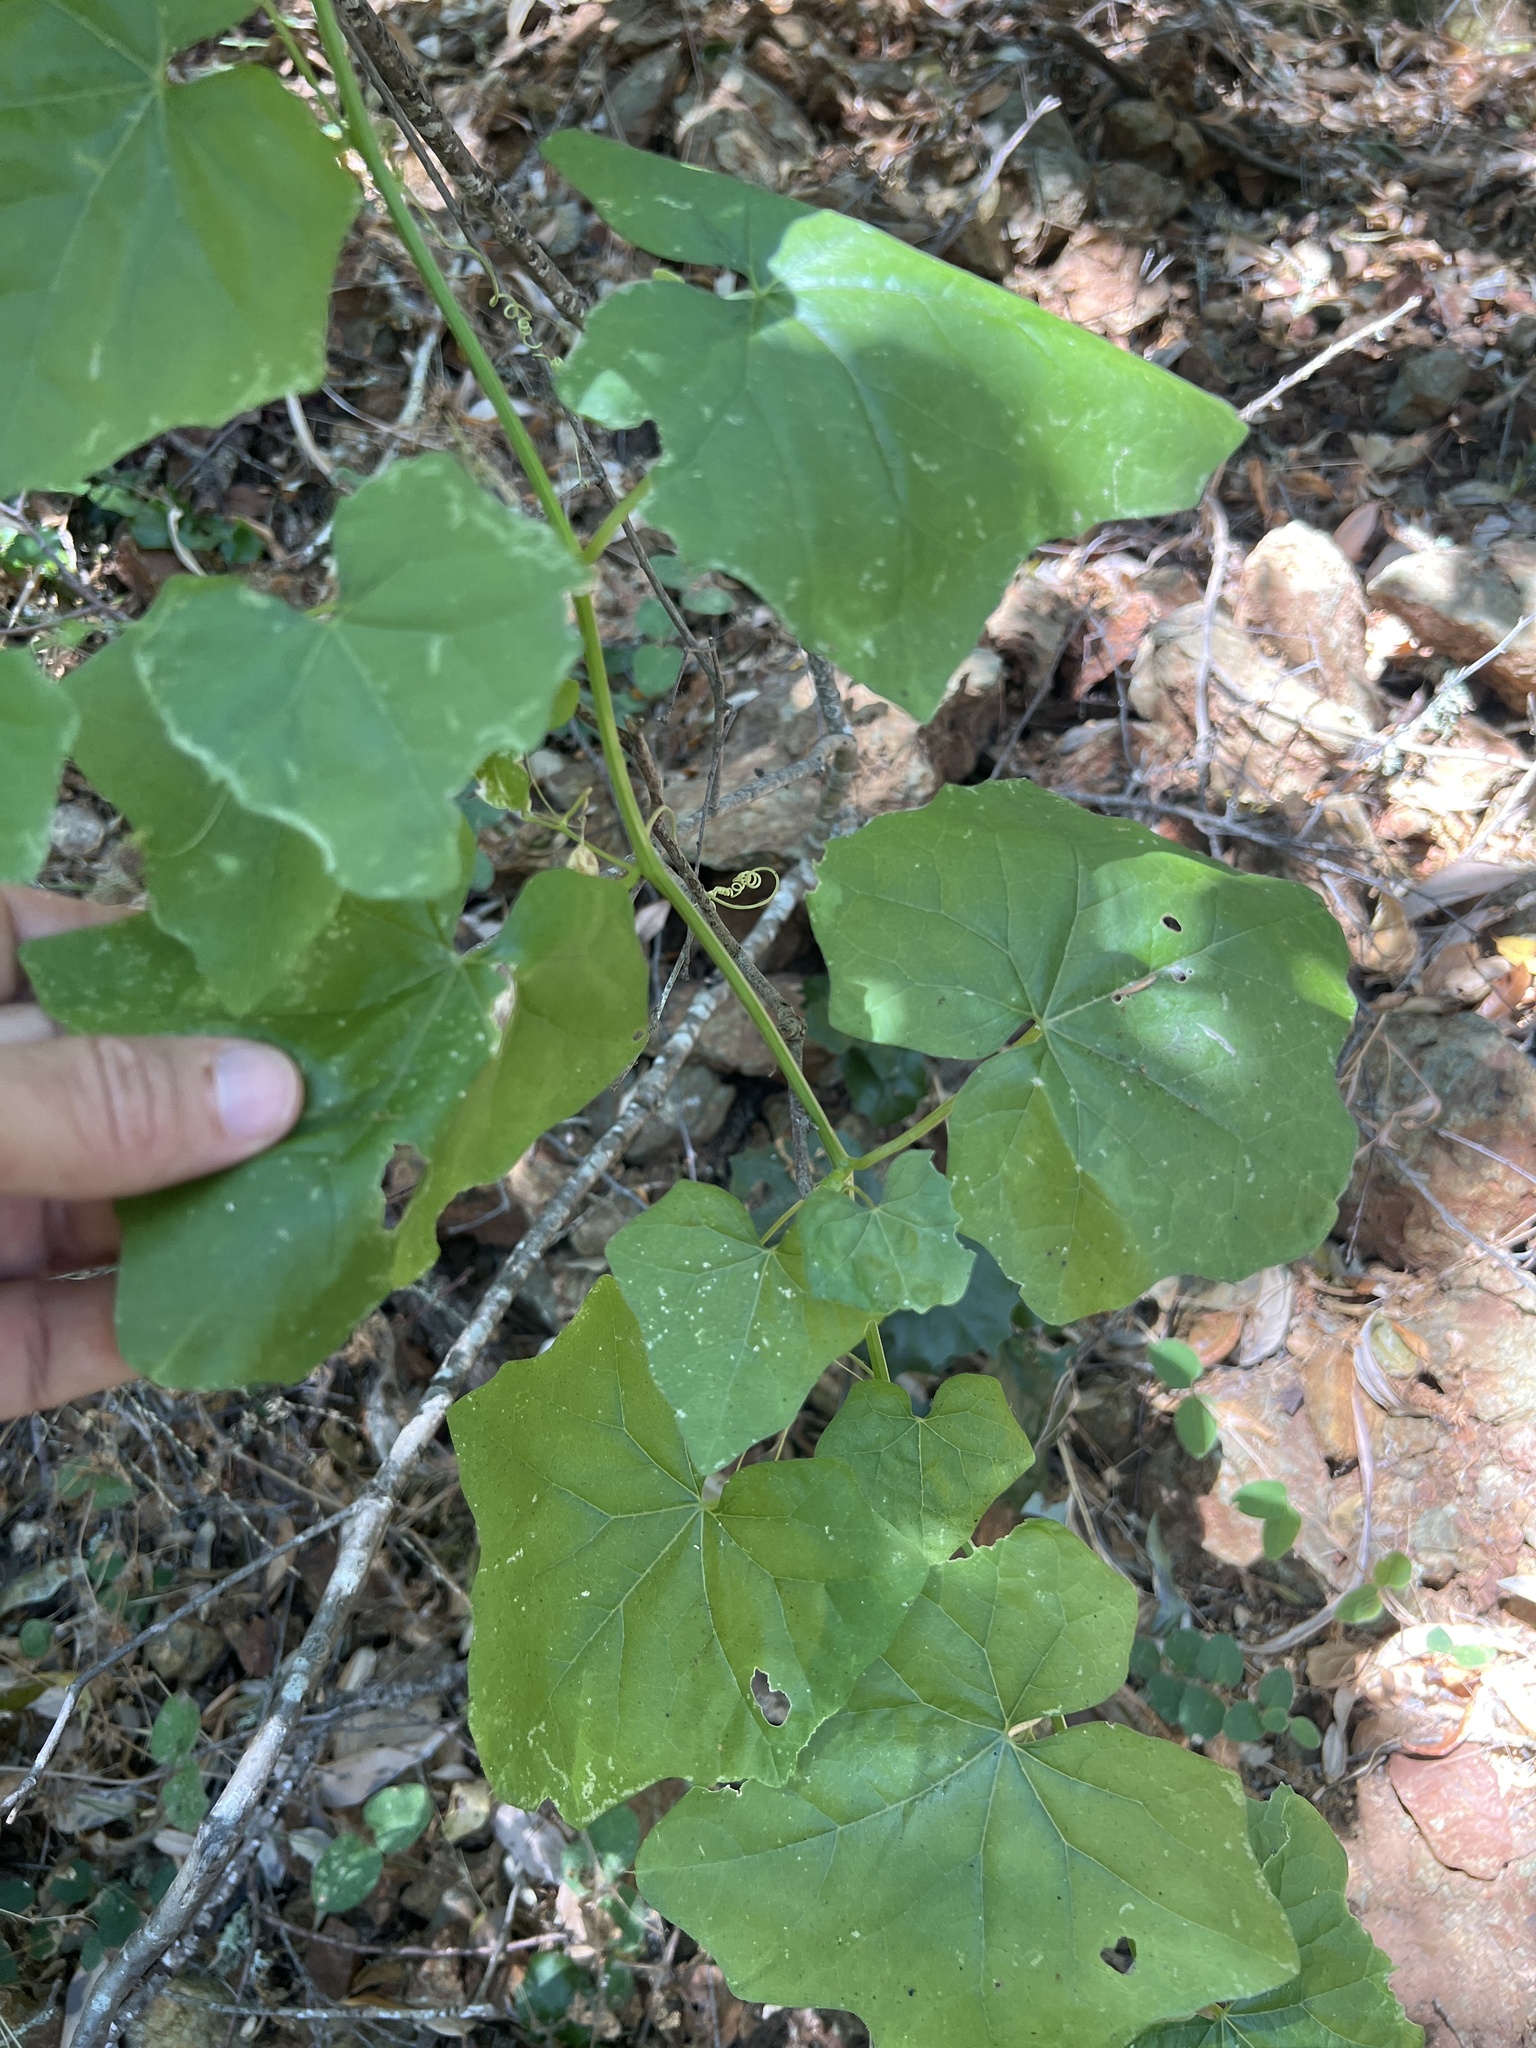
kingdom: Plantae
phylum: Tracheophyta
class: Magnoliopsida
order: Cucurbitales
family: Cucurbitaceae
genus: Marah
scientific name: Marah fabacea
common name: California manroot
